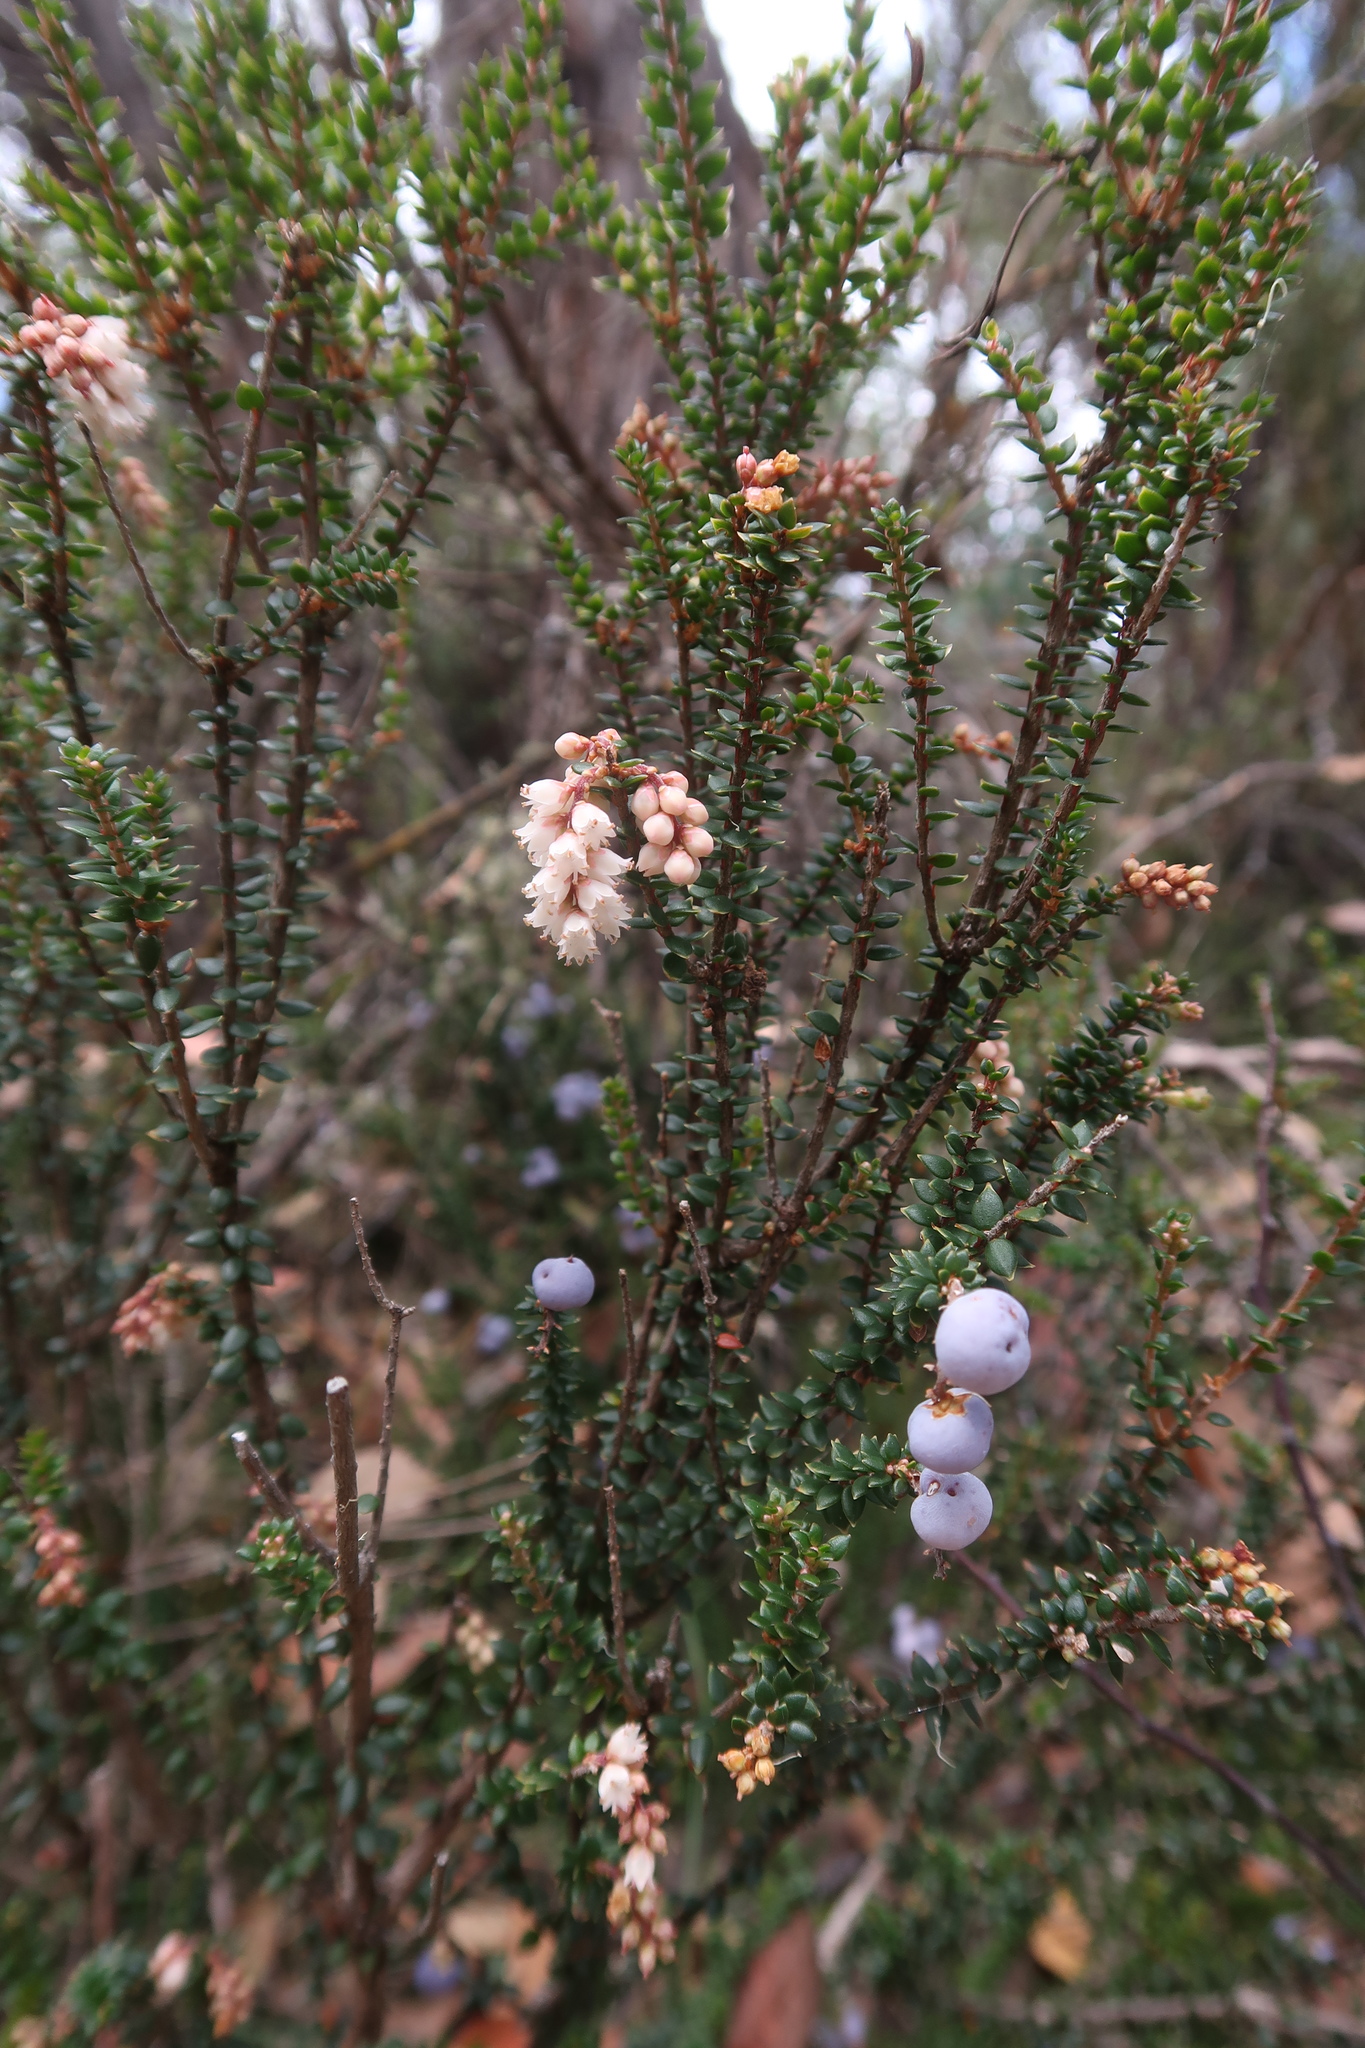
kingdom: Plantae
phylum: Tracheophyta
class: Magnoliopsida
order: Ericales
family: Ericaceae
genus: Trochocarpa
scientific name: Trochocarpa thymifolia
